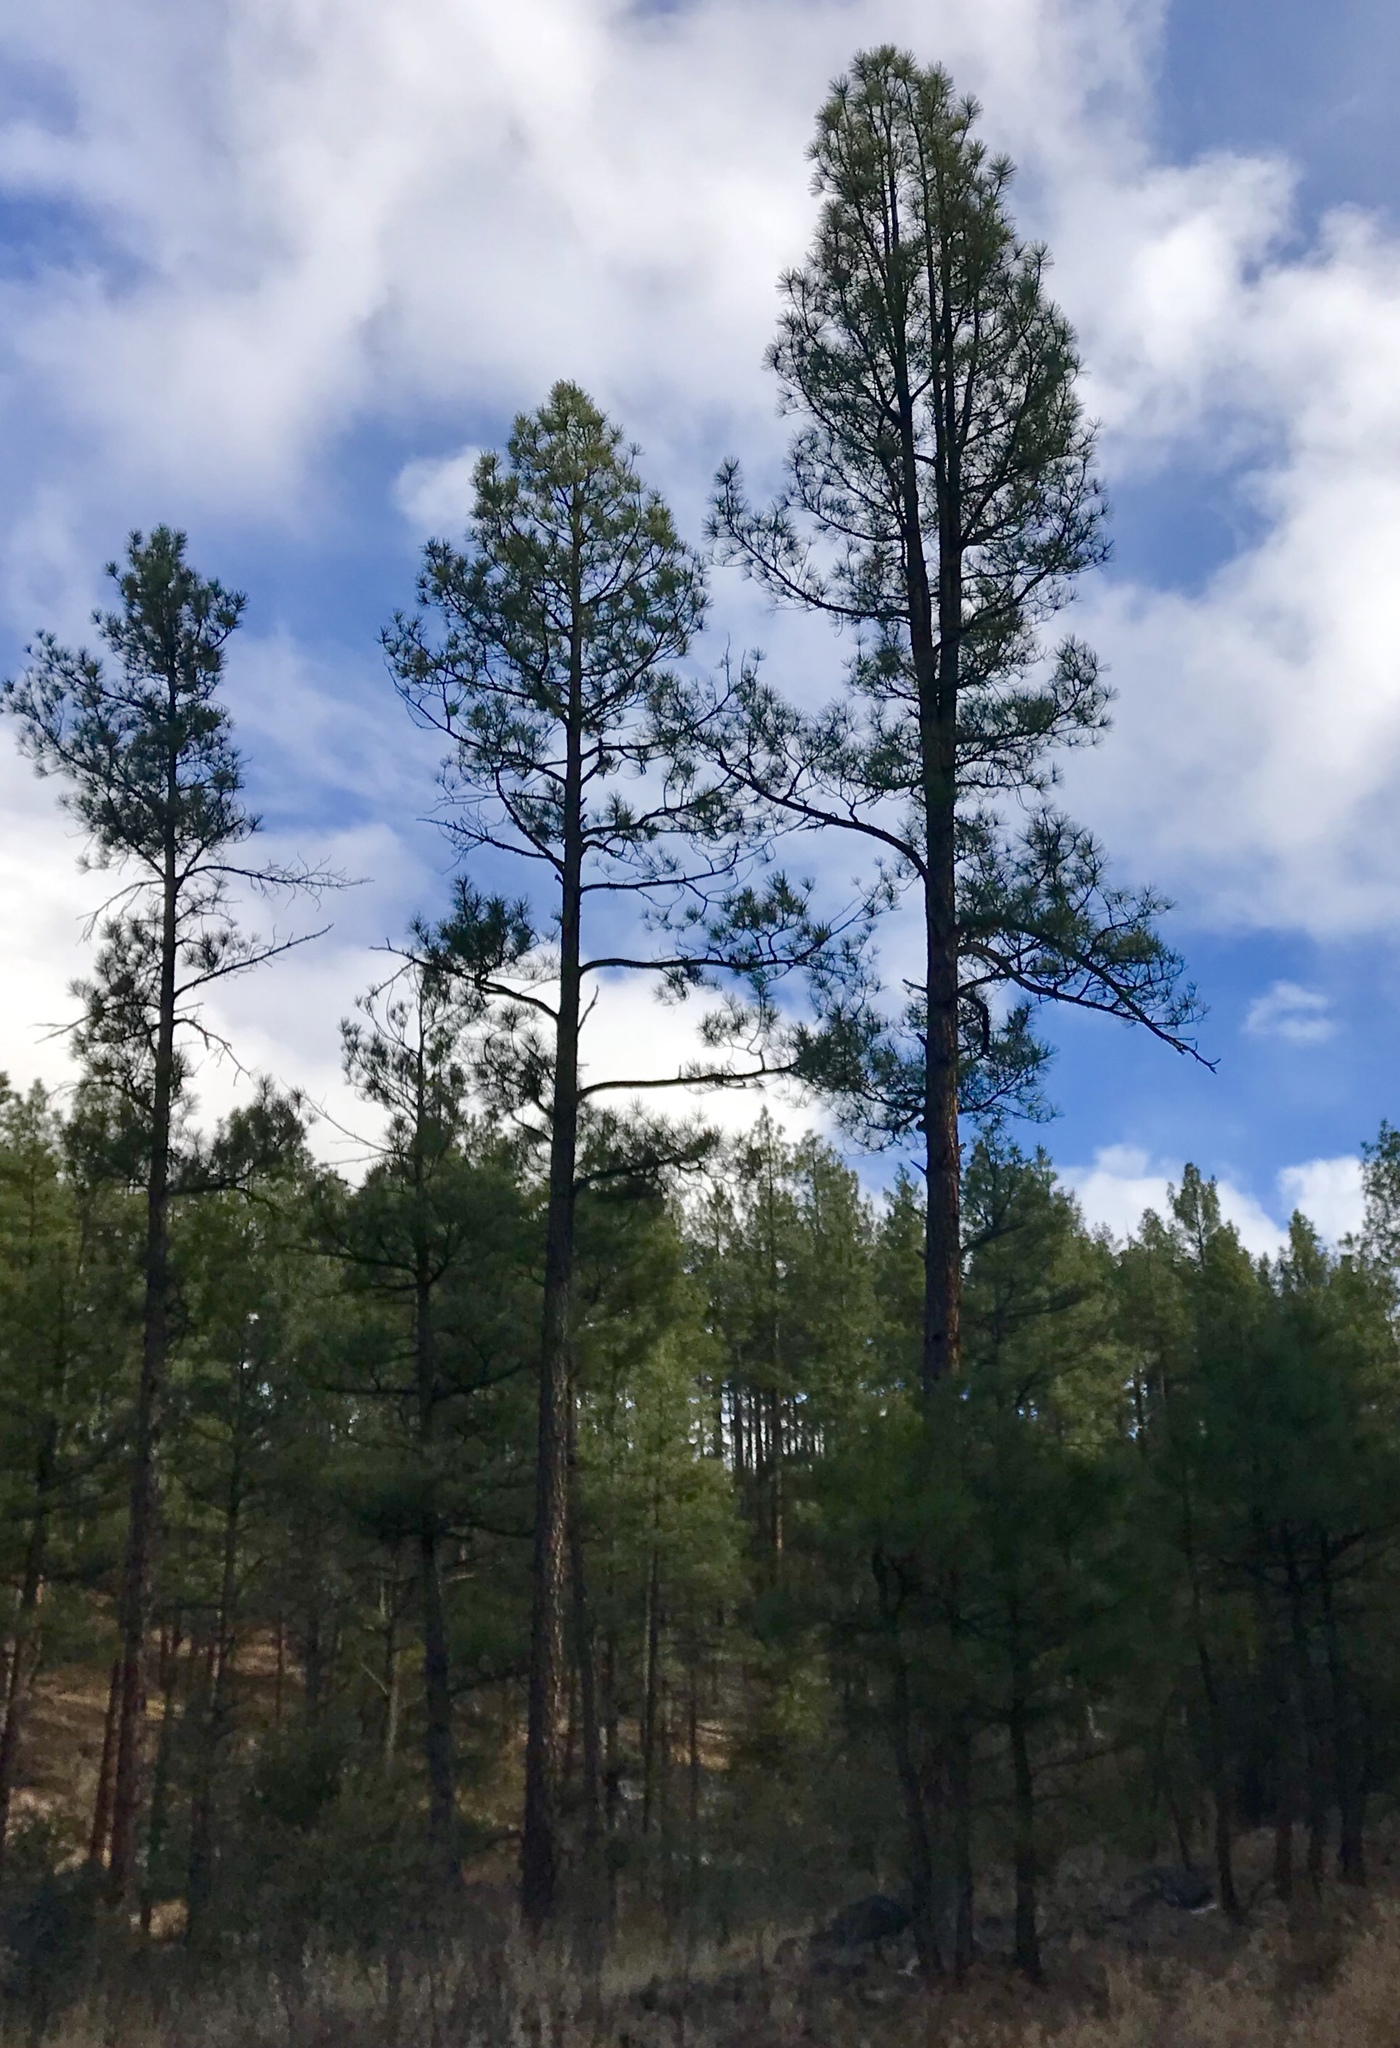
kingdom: Plantae
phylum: Tracheophyta
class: Pinopsida
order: Pinales
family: Pinaceae
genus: Pinus
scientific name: Pinus ponderosa
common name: Western yellow-pine
